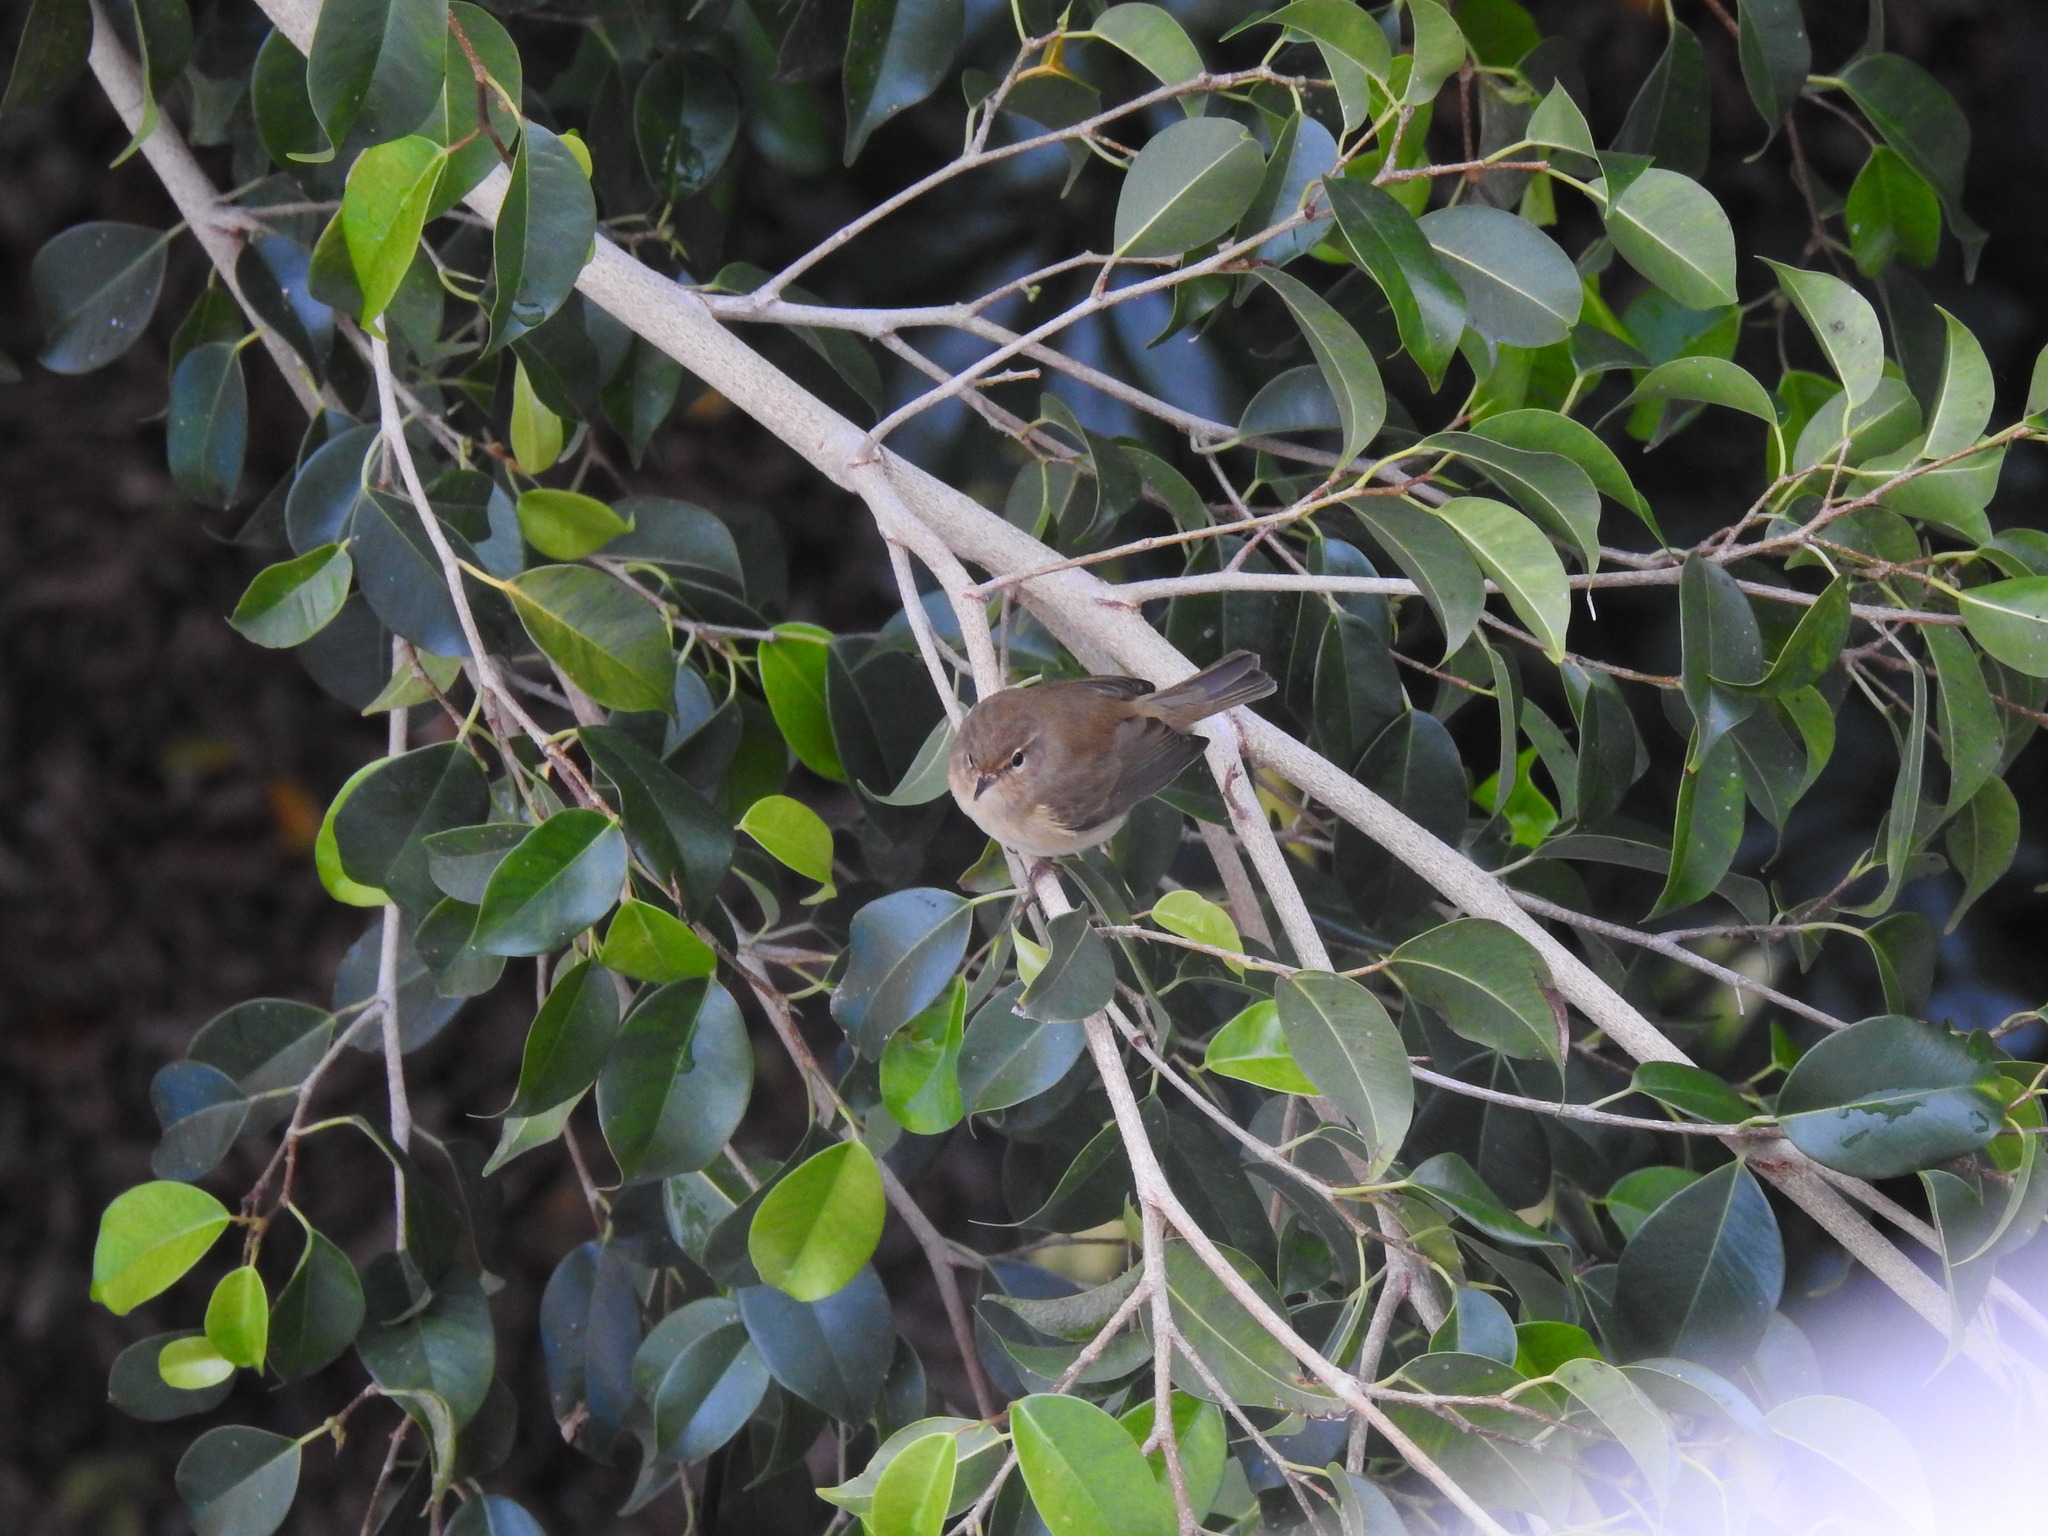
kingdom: Animalia
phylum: Chordata
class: Aves
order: Passeriformes
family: Phylloscopidae
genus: Phylloscopus
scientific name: Phylloscopus collybita
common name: Common chiffchaff
